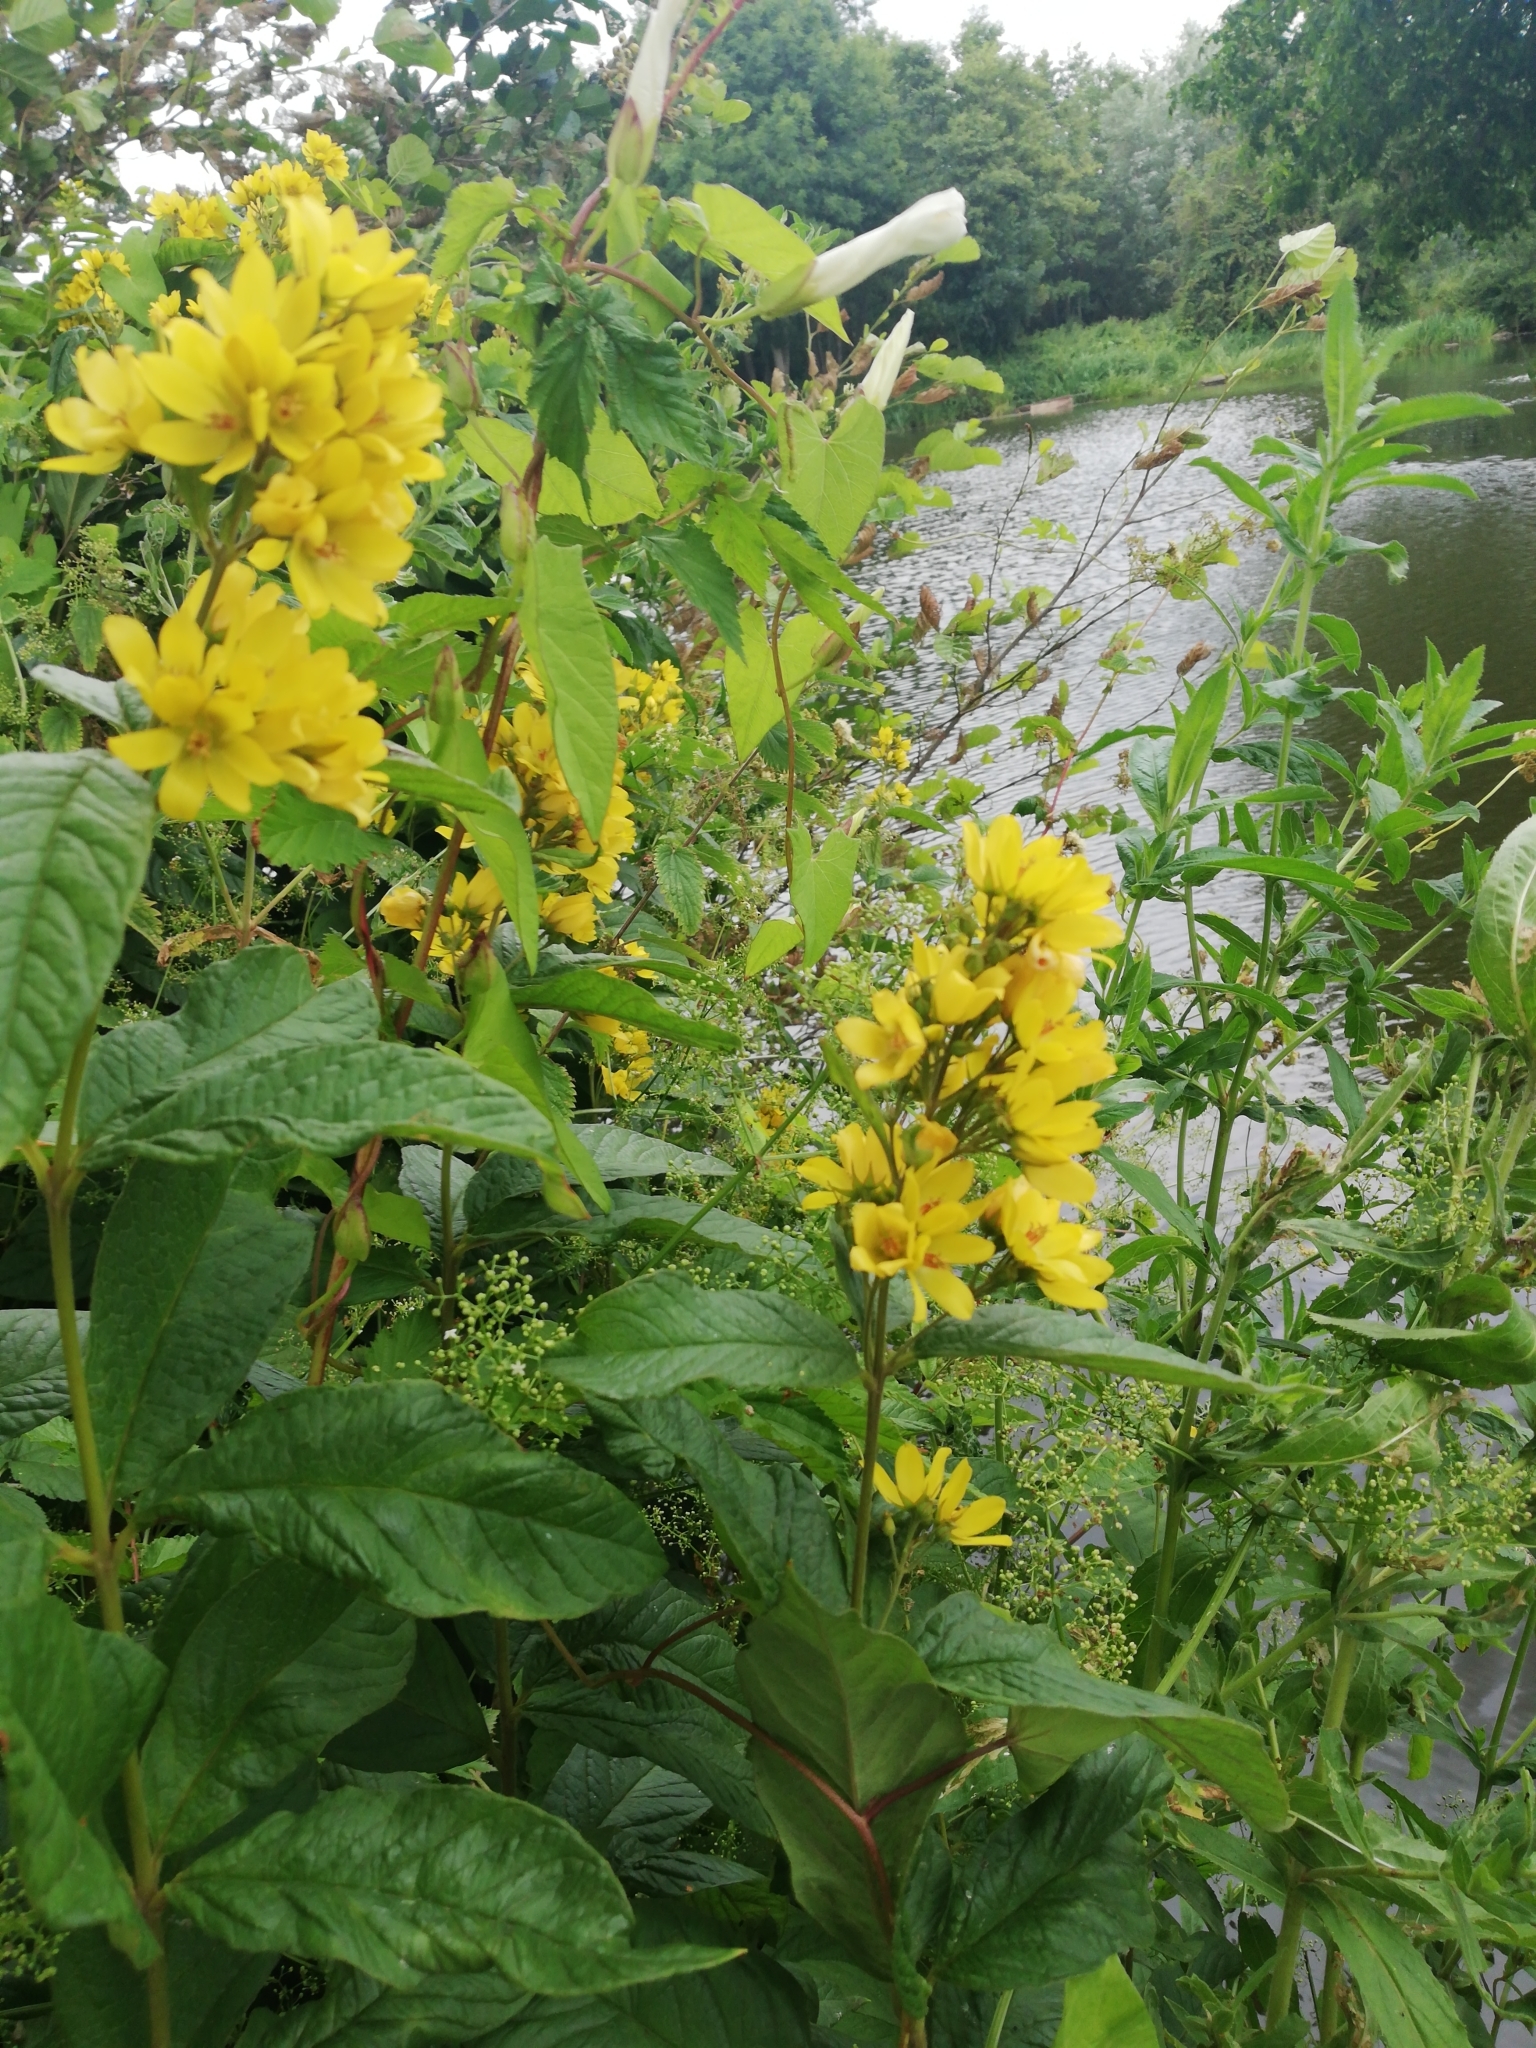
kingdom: Plantae
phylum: Tracheophyta
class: Magnoliopsida
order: Ericales
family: Primulaceae
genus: Lysimachia
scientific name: Lysimachia vulgaris
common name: Yellow loosestrife
